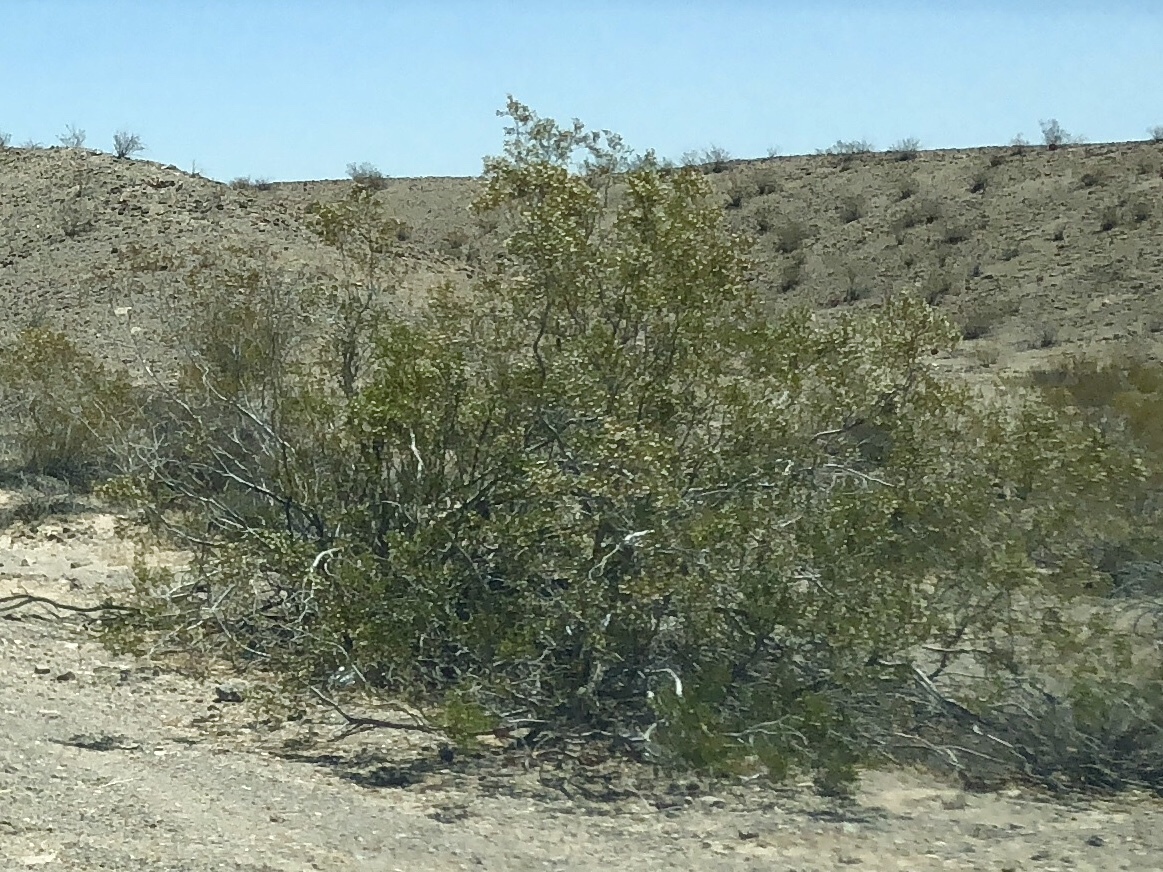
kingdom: Plantae
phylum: Tracheophyta
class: Magnoliopsida
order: Zygophyllales
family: Zygophyllaceae
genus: Larrea
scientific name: Larrea tridentata
